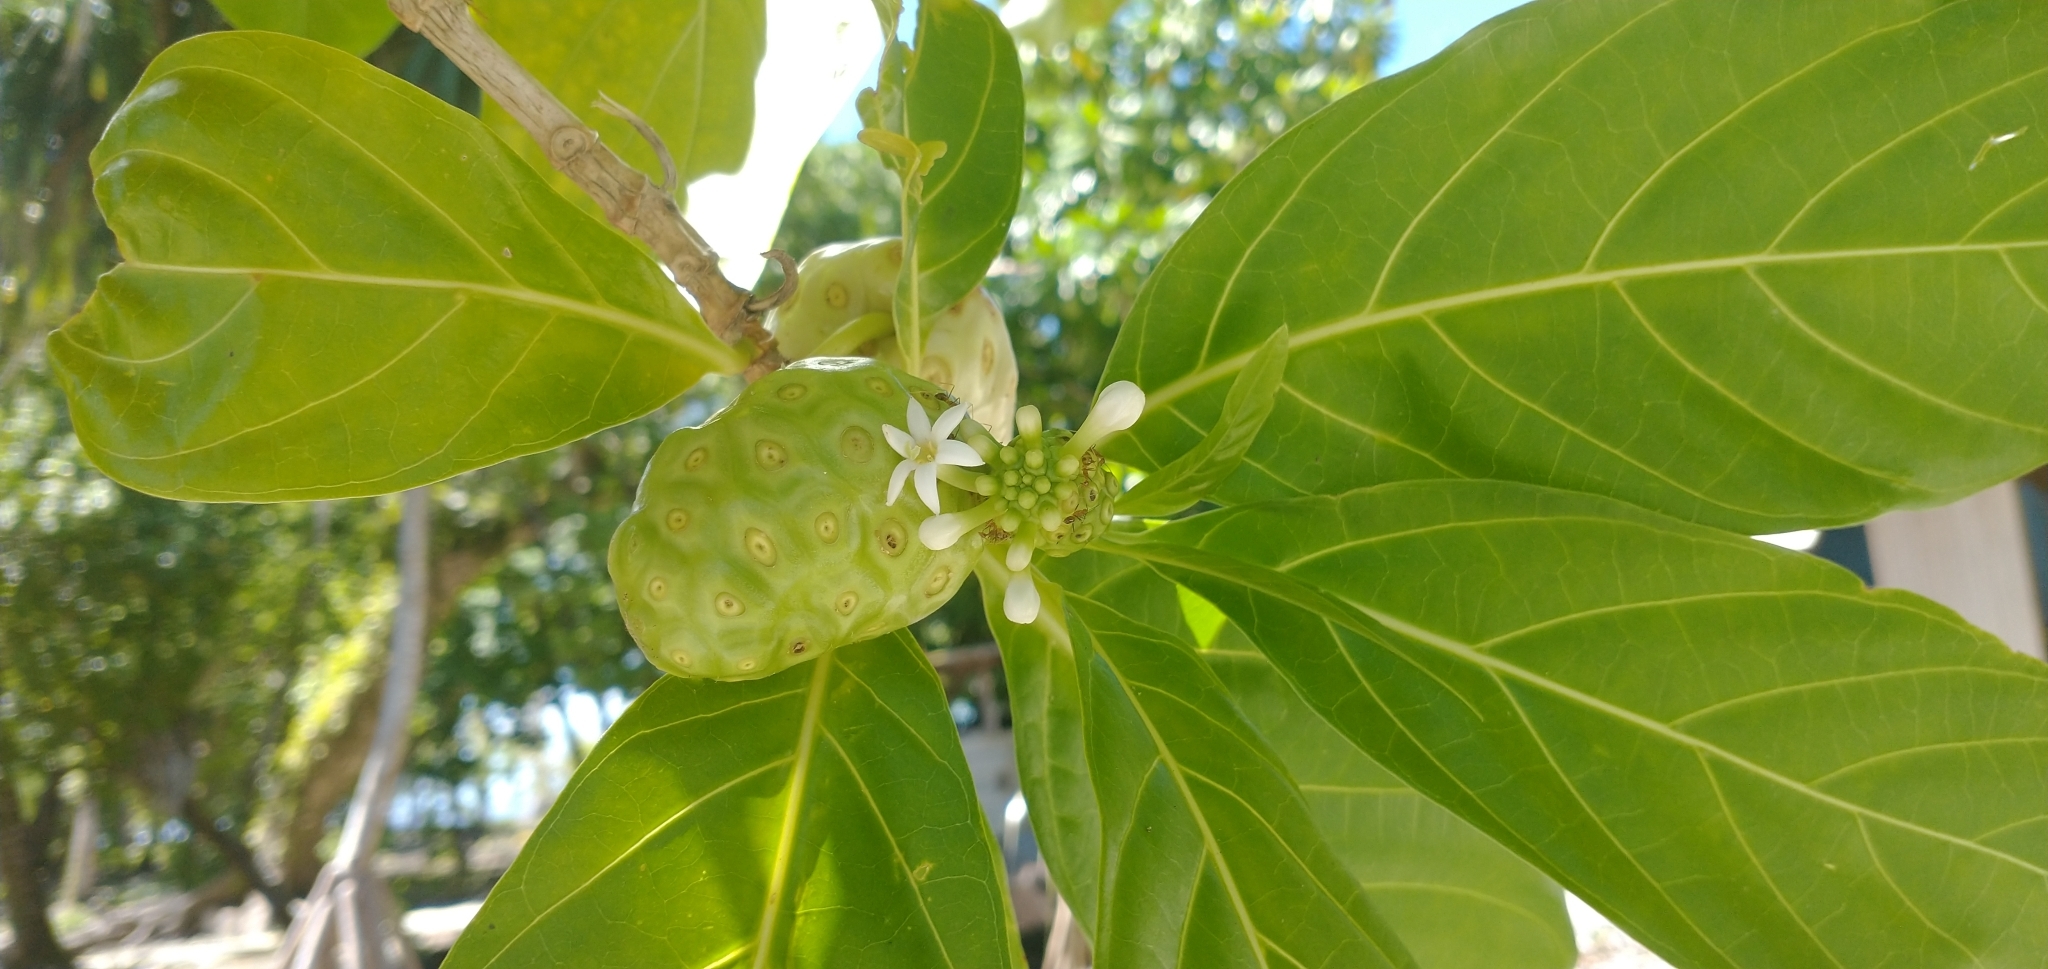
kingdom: Plantae
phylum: Tracheophyta
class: Magnoliopsida
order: Gentianales
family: Rubiaceae
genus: Morinda
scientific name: Morinda citrifolia
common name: Indian-mulberry
